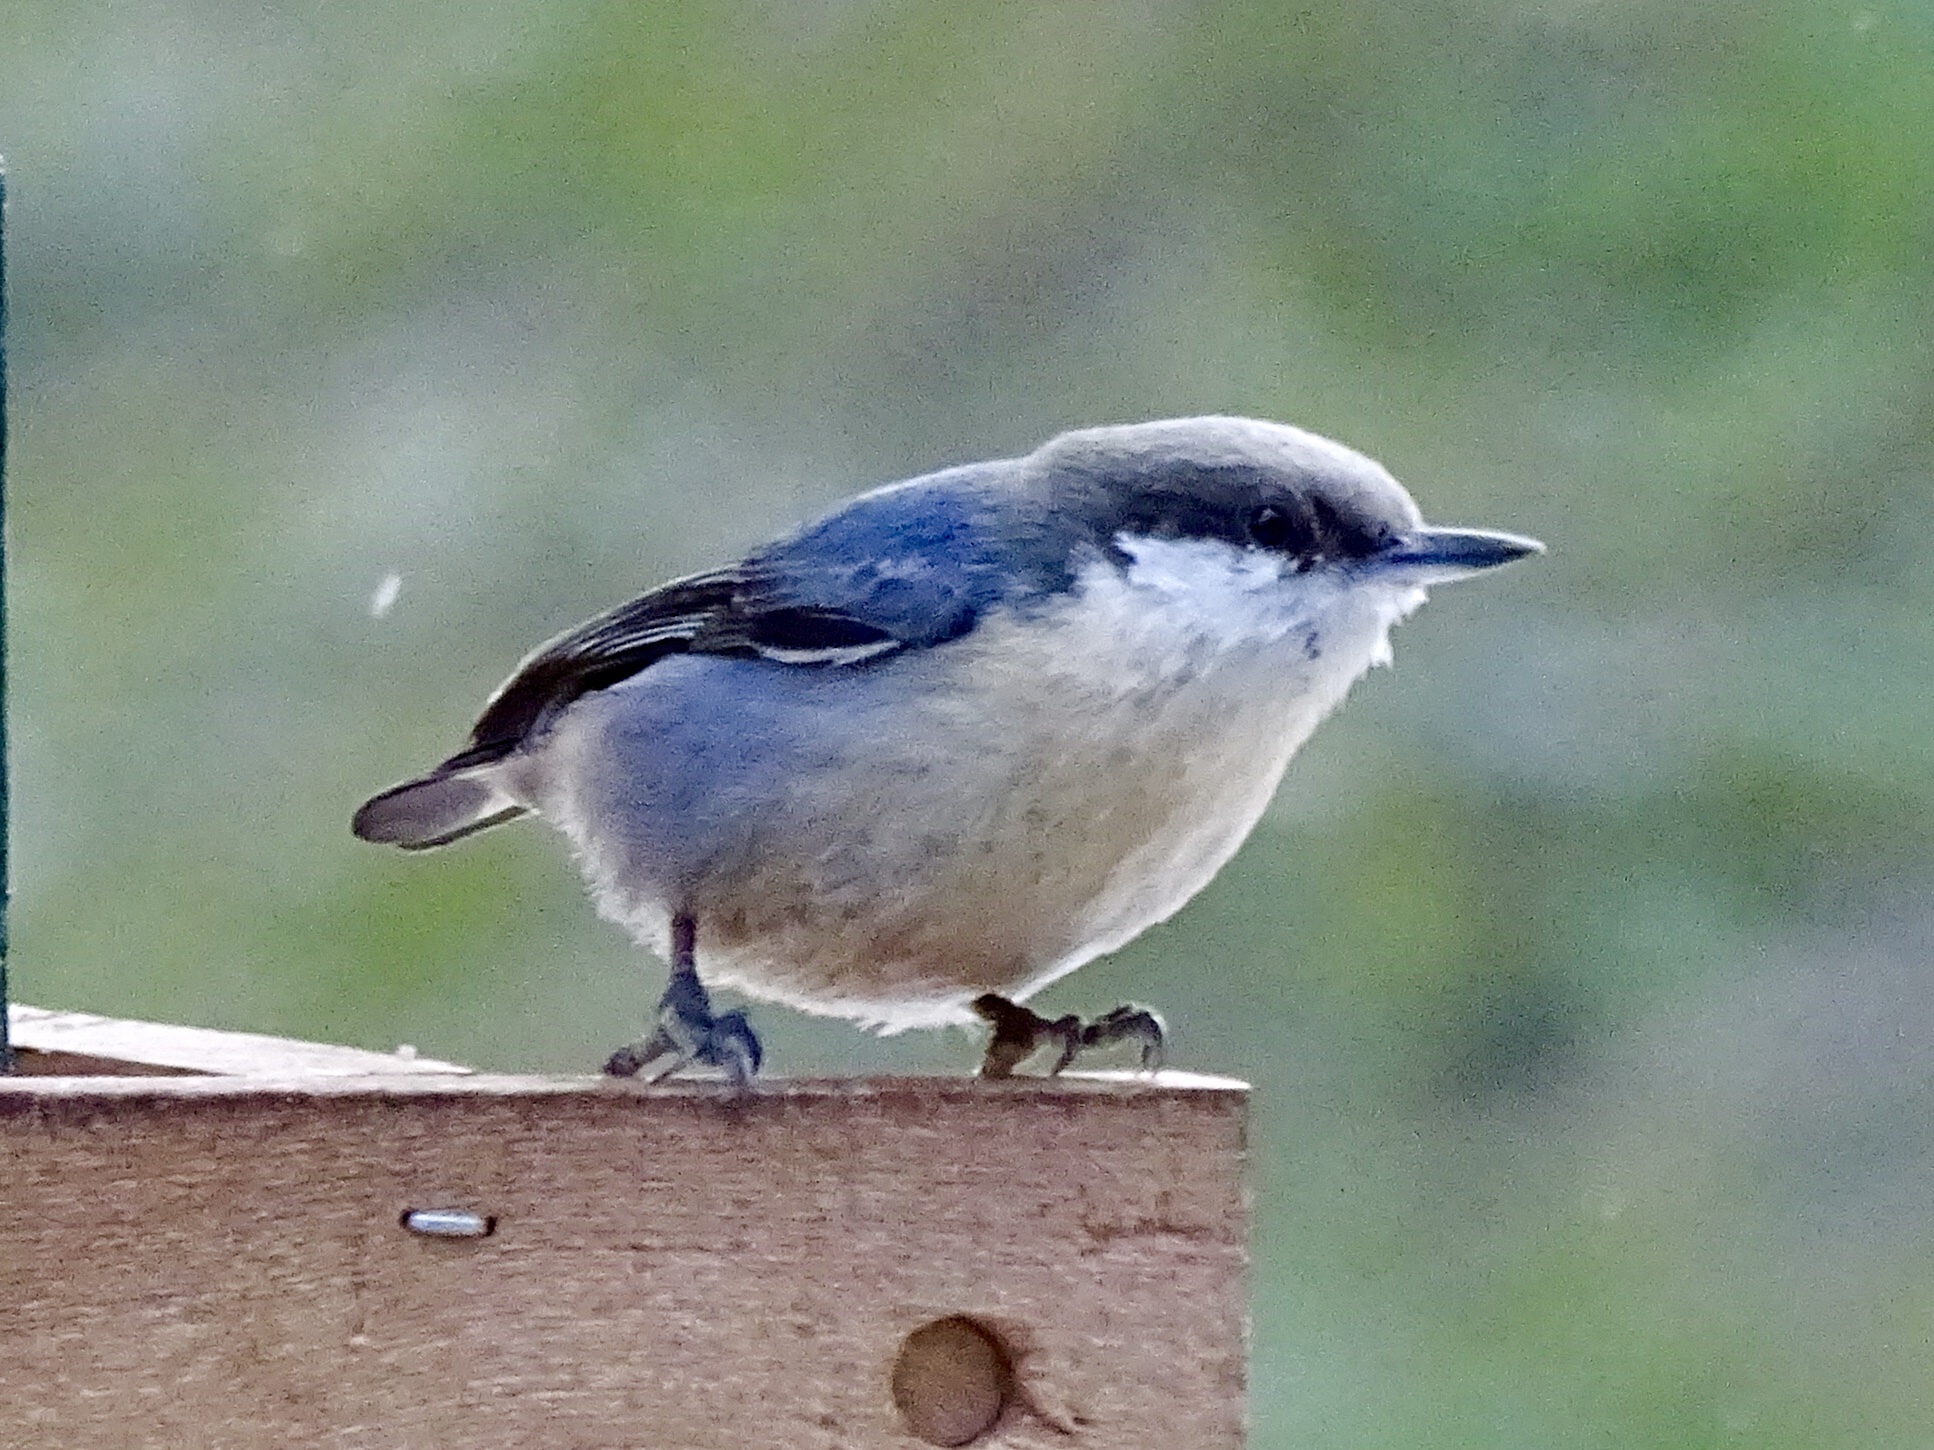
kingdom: Animalia
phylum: Chordata
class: Aves
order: Passeriformes
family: Sittidae
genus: Sitta
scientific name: Sitta pygmaea
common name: Pygmy nuthatch
